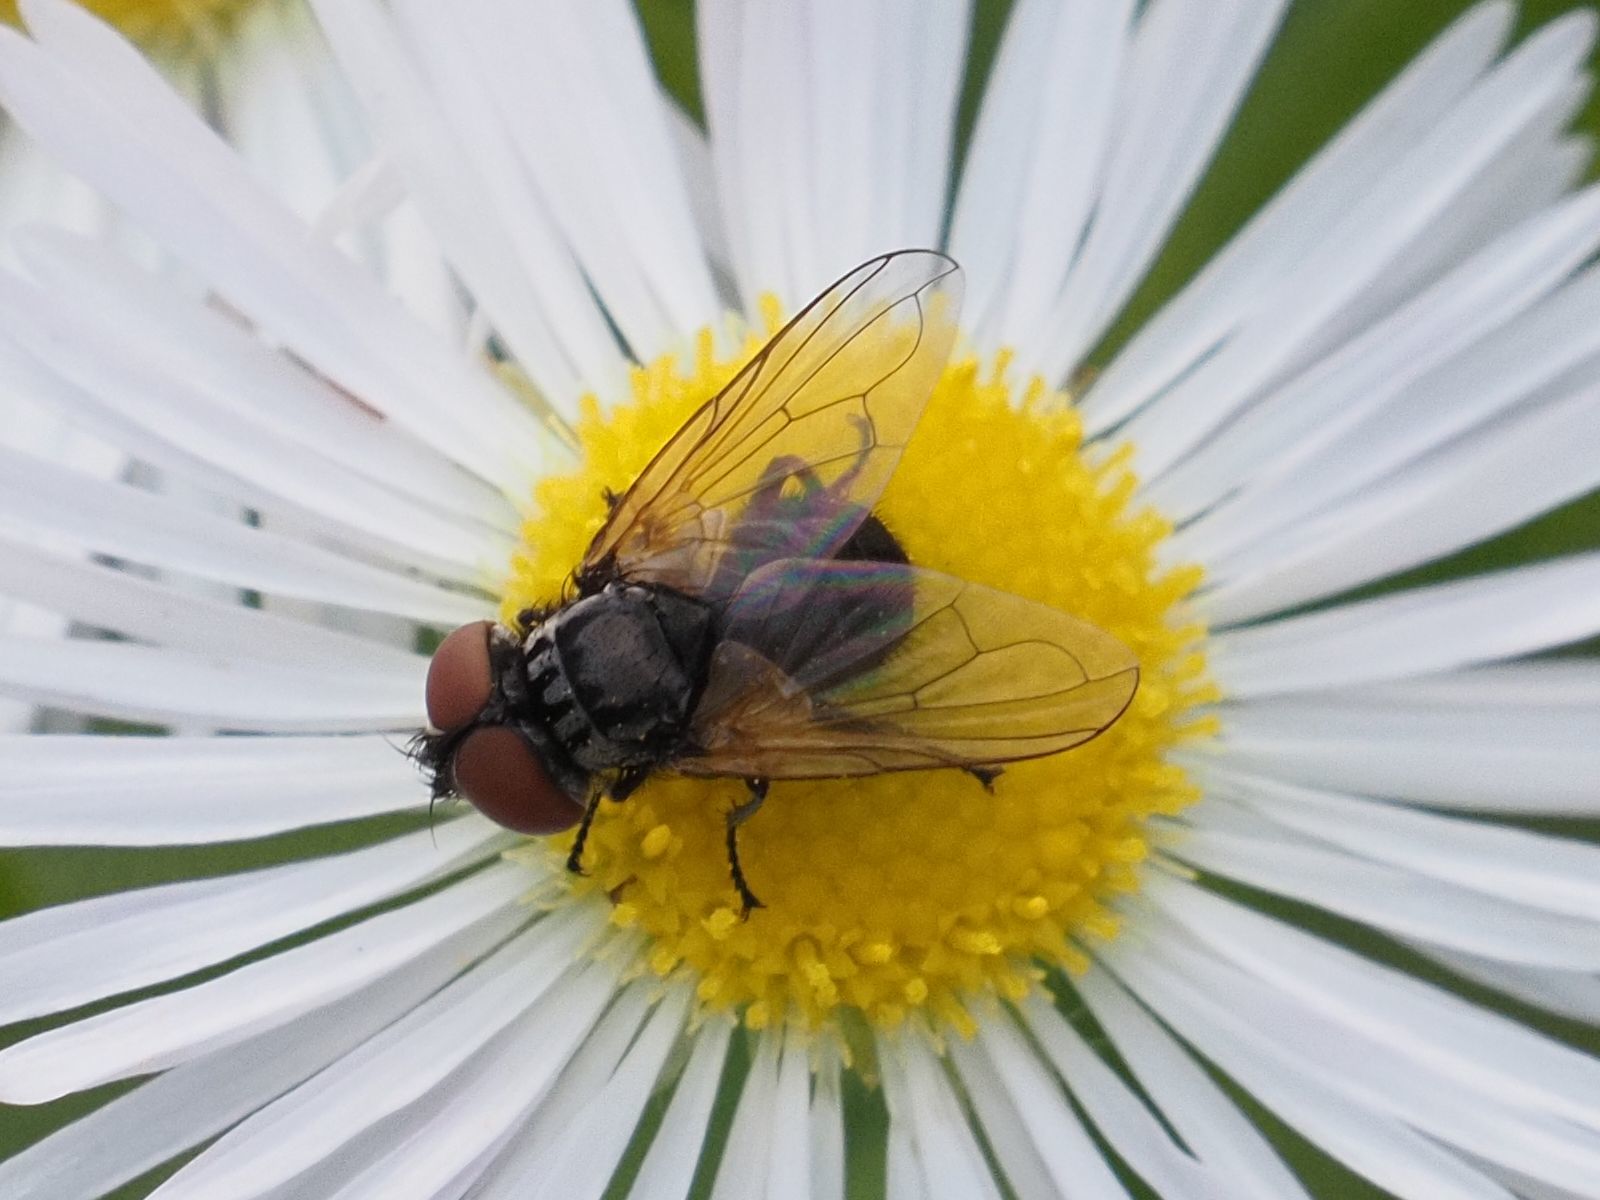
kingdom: Animalia
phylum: Arthropoda
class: Insecta
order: Diptera
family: Tachinidae
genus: Phasia
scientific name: Phasia obesa
